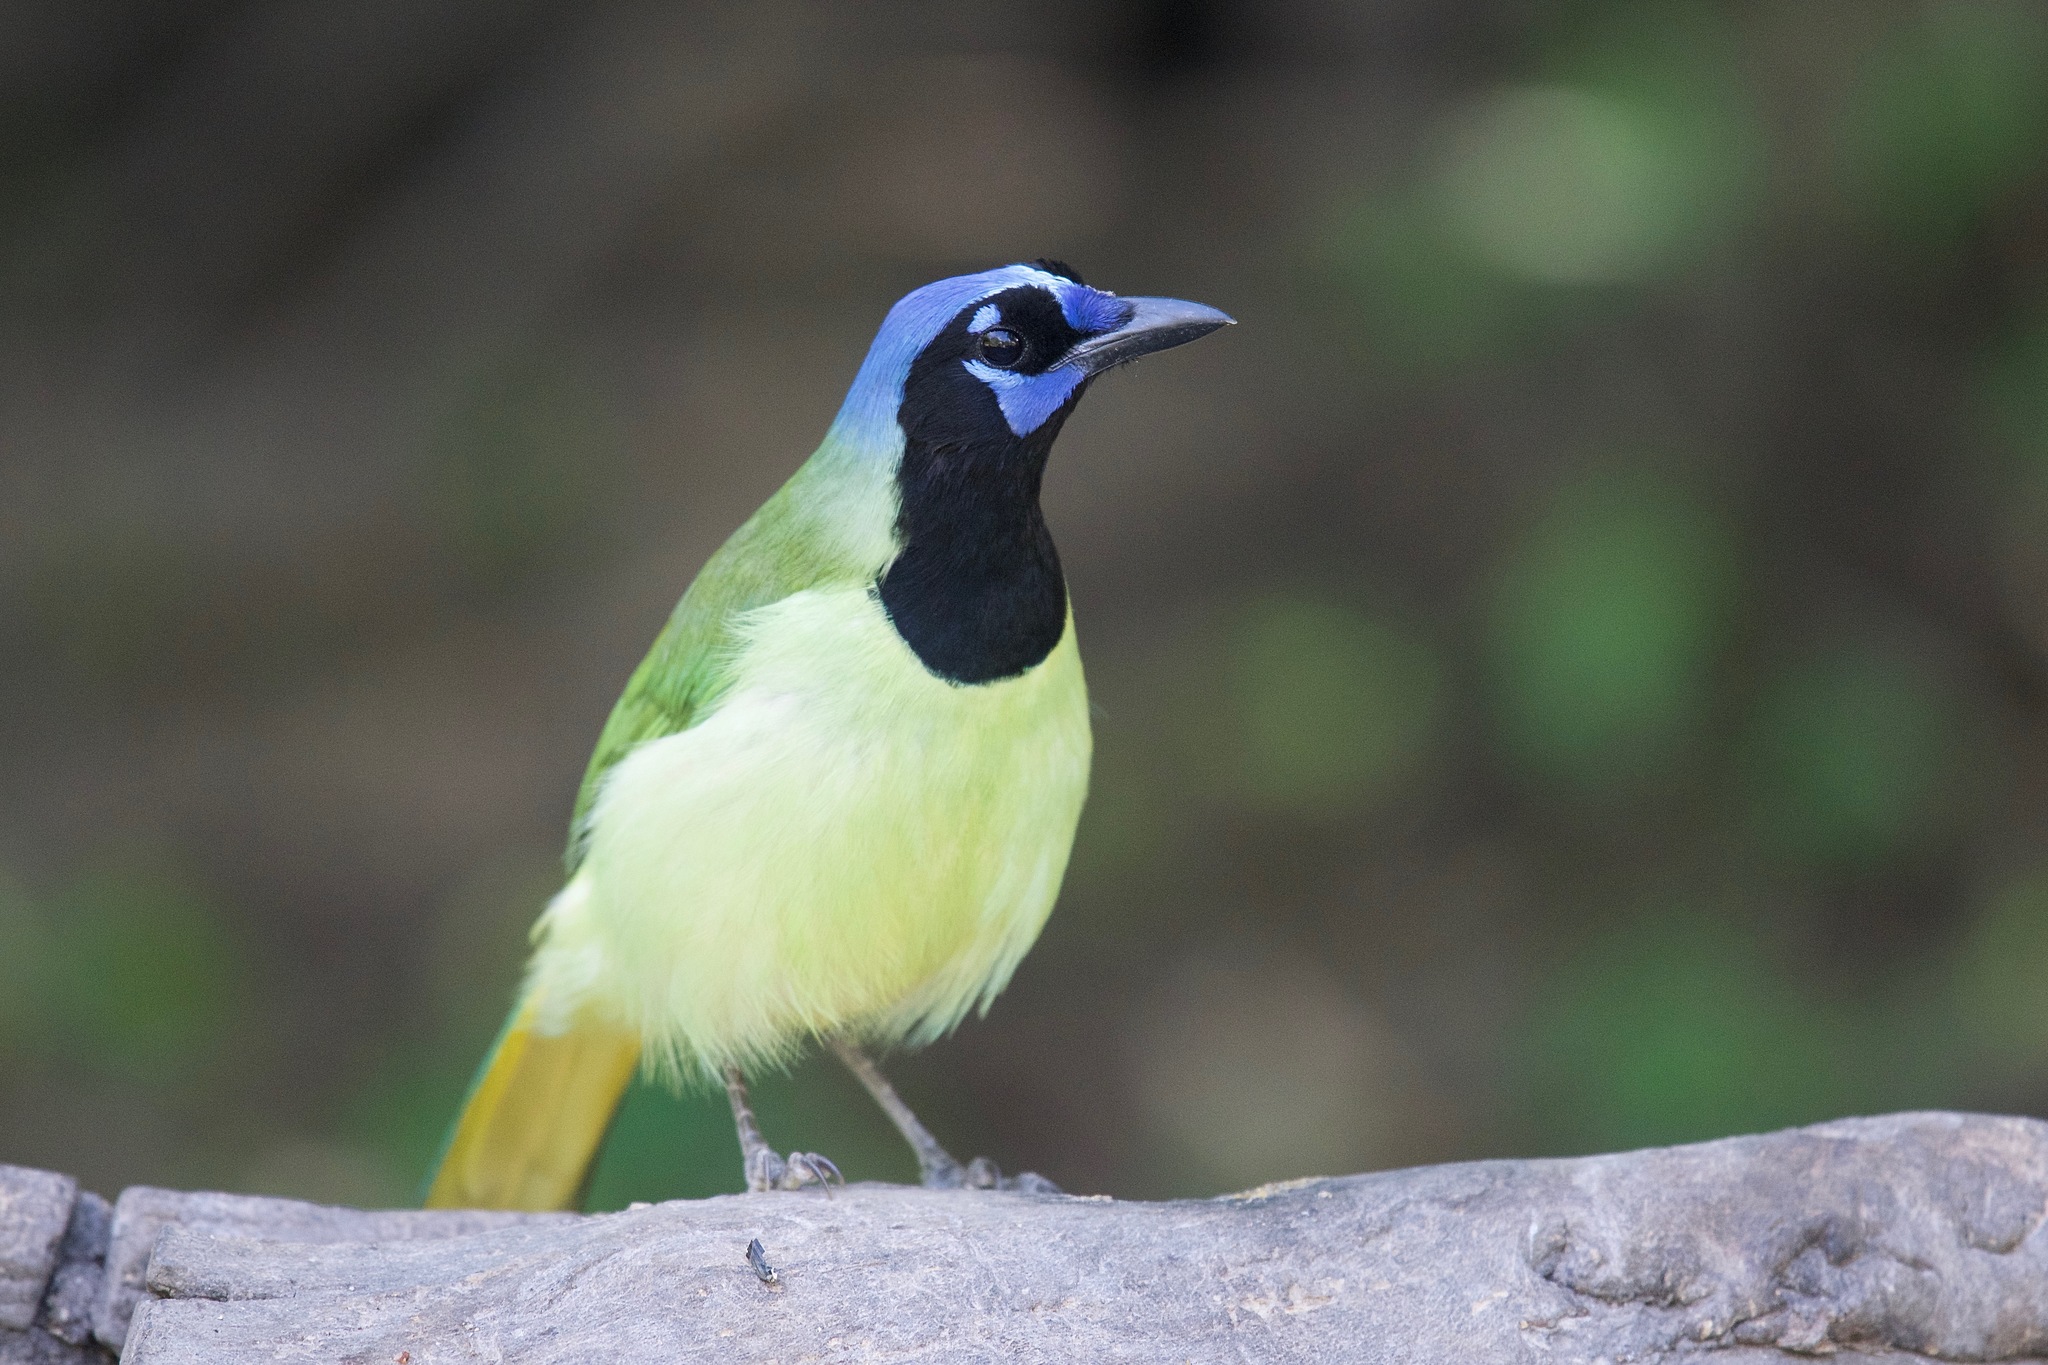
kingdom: Animalia
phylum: Chordata
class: Aves
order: Passeriformes
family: Corvidae
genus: Cyanocorax
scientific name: Cyanocorax yncas
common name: Green jay
